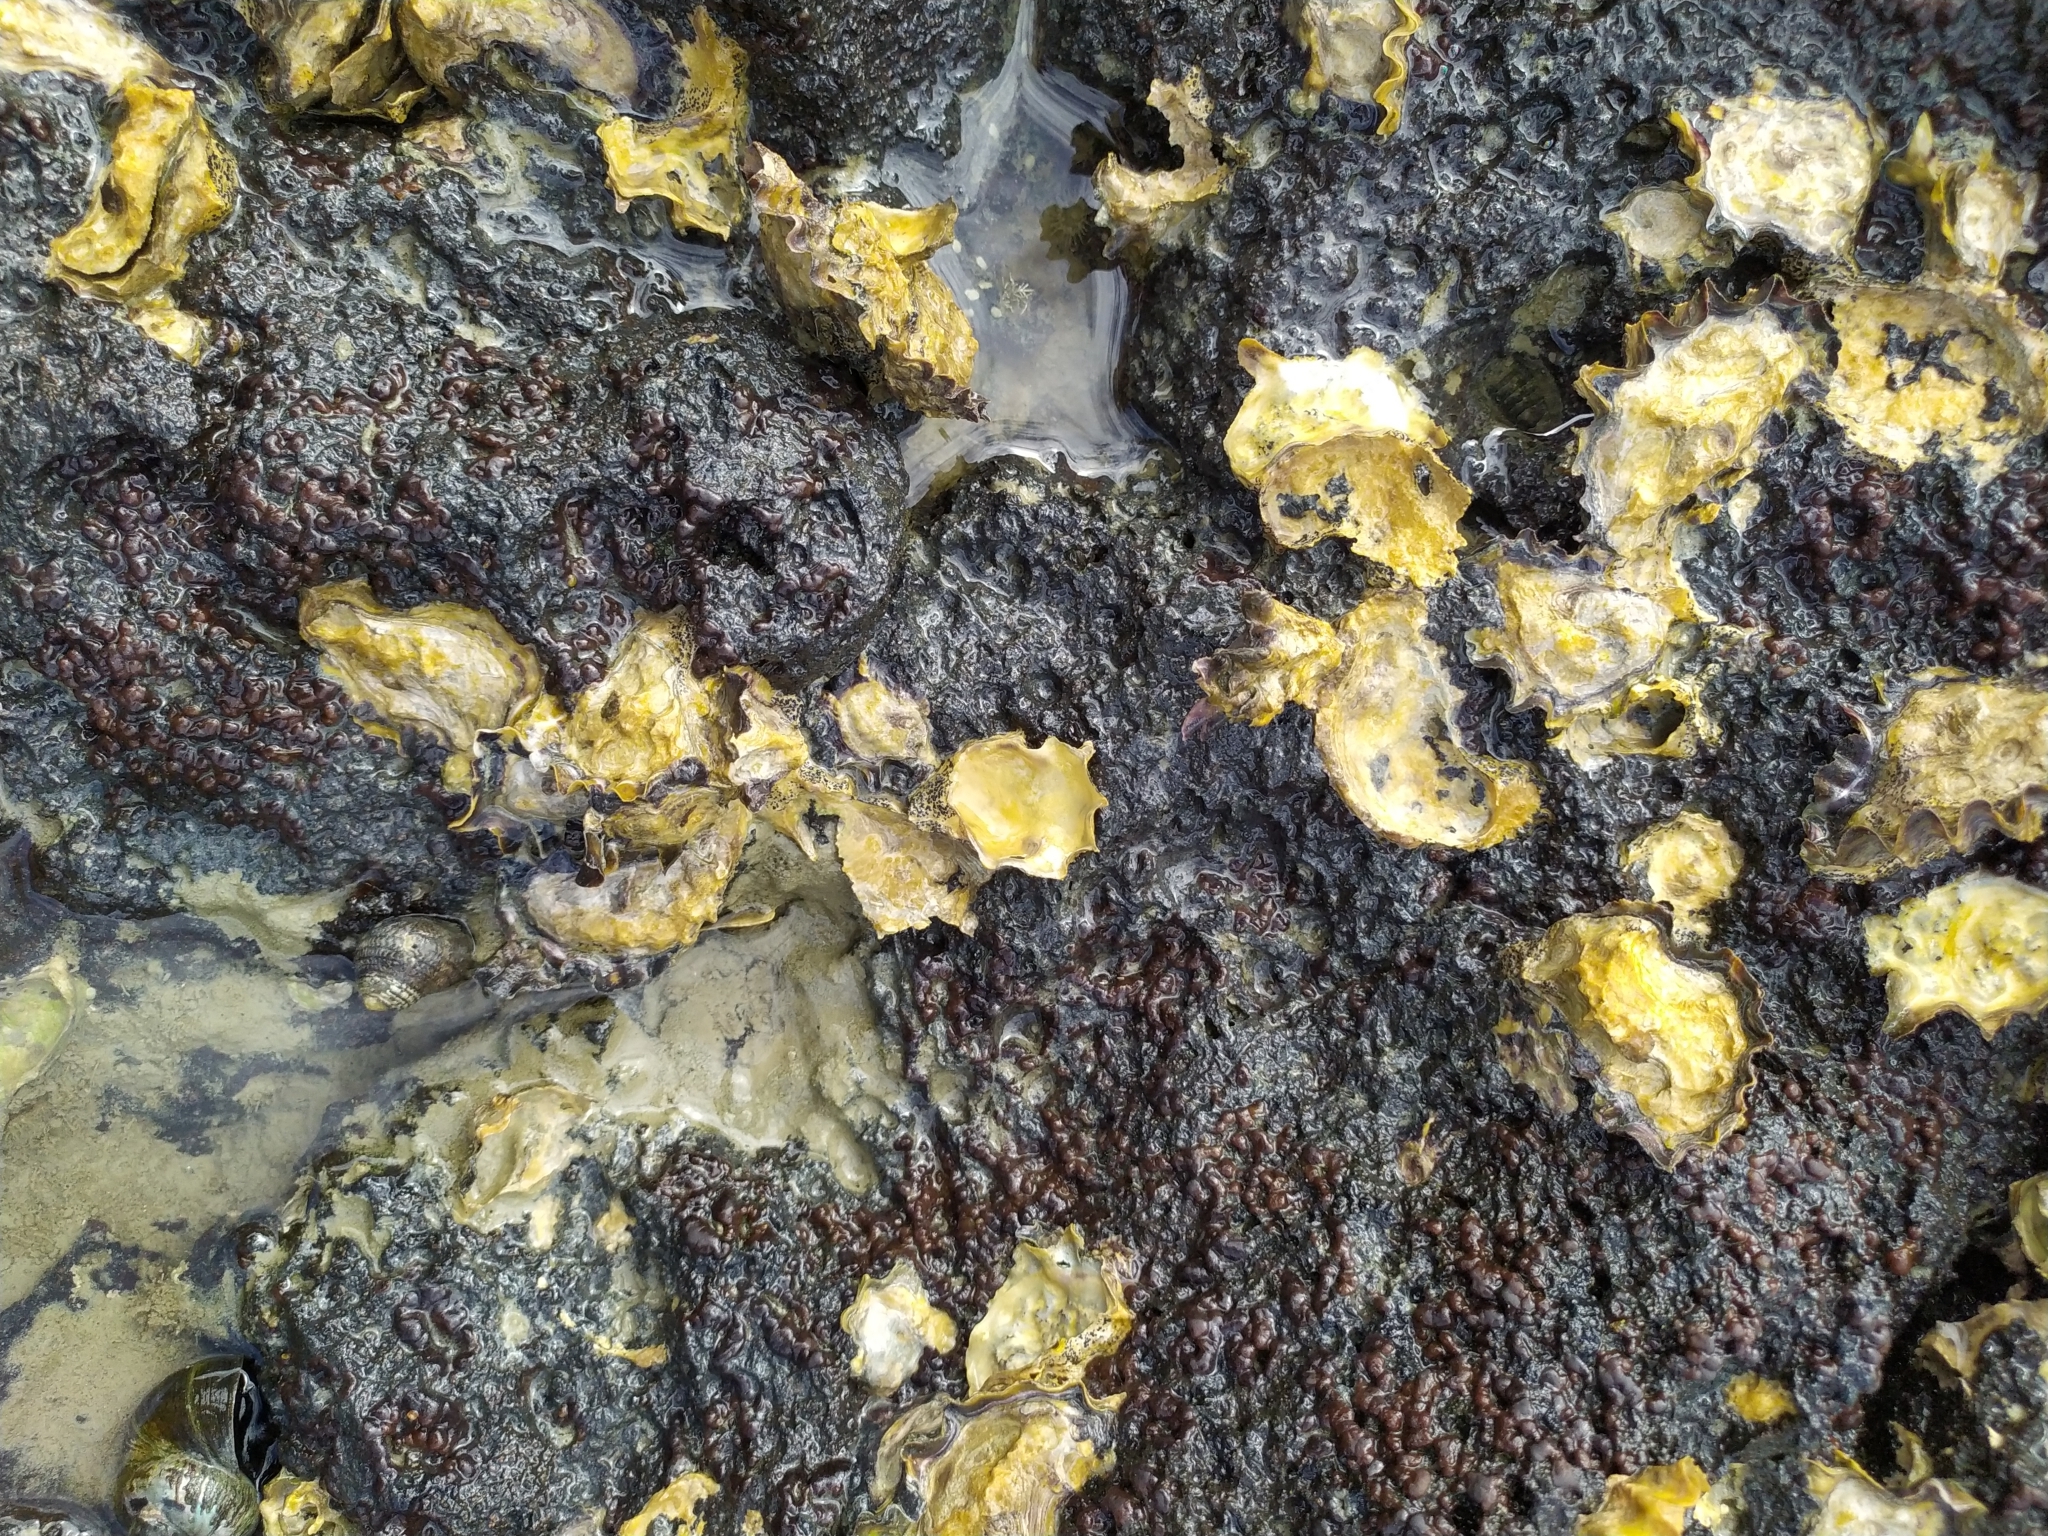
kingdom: Animalia
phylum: Mollusca
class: Bivalvia
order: Ostreida
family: Ostreidae
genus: Magallana
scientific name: Magallana gigas
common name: Pacific oyster
